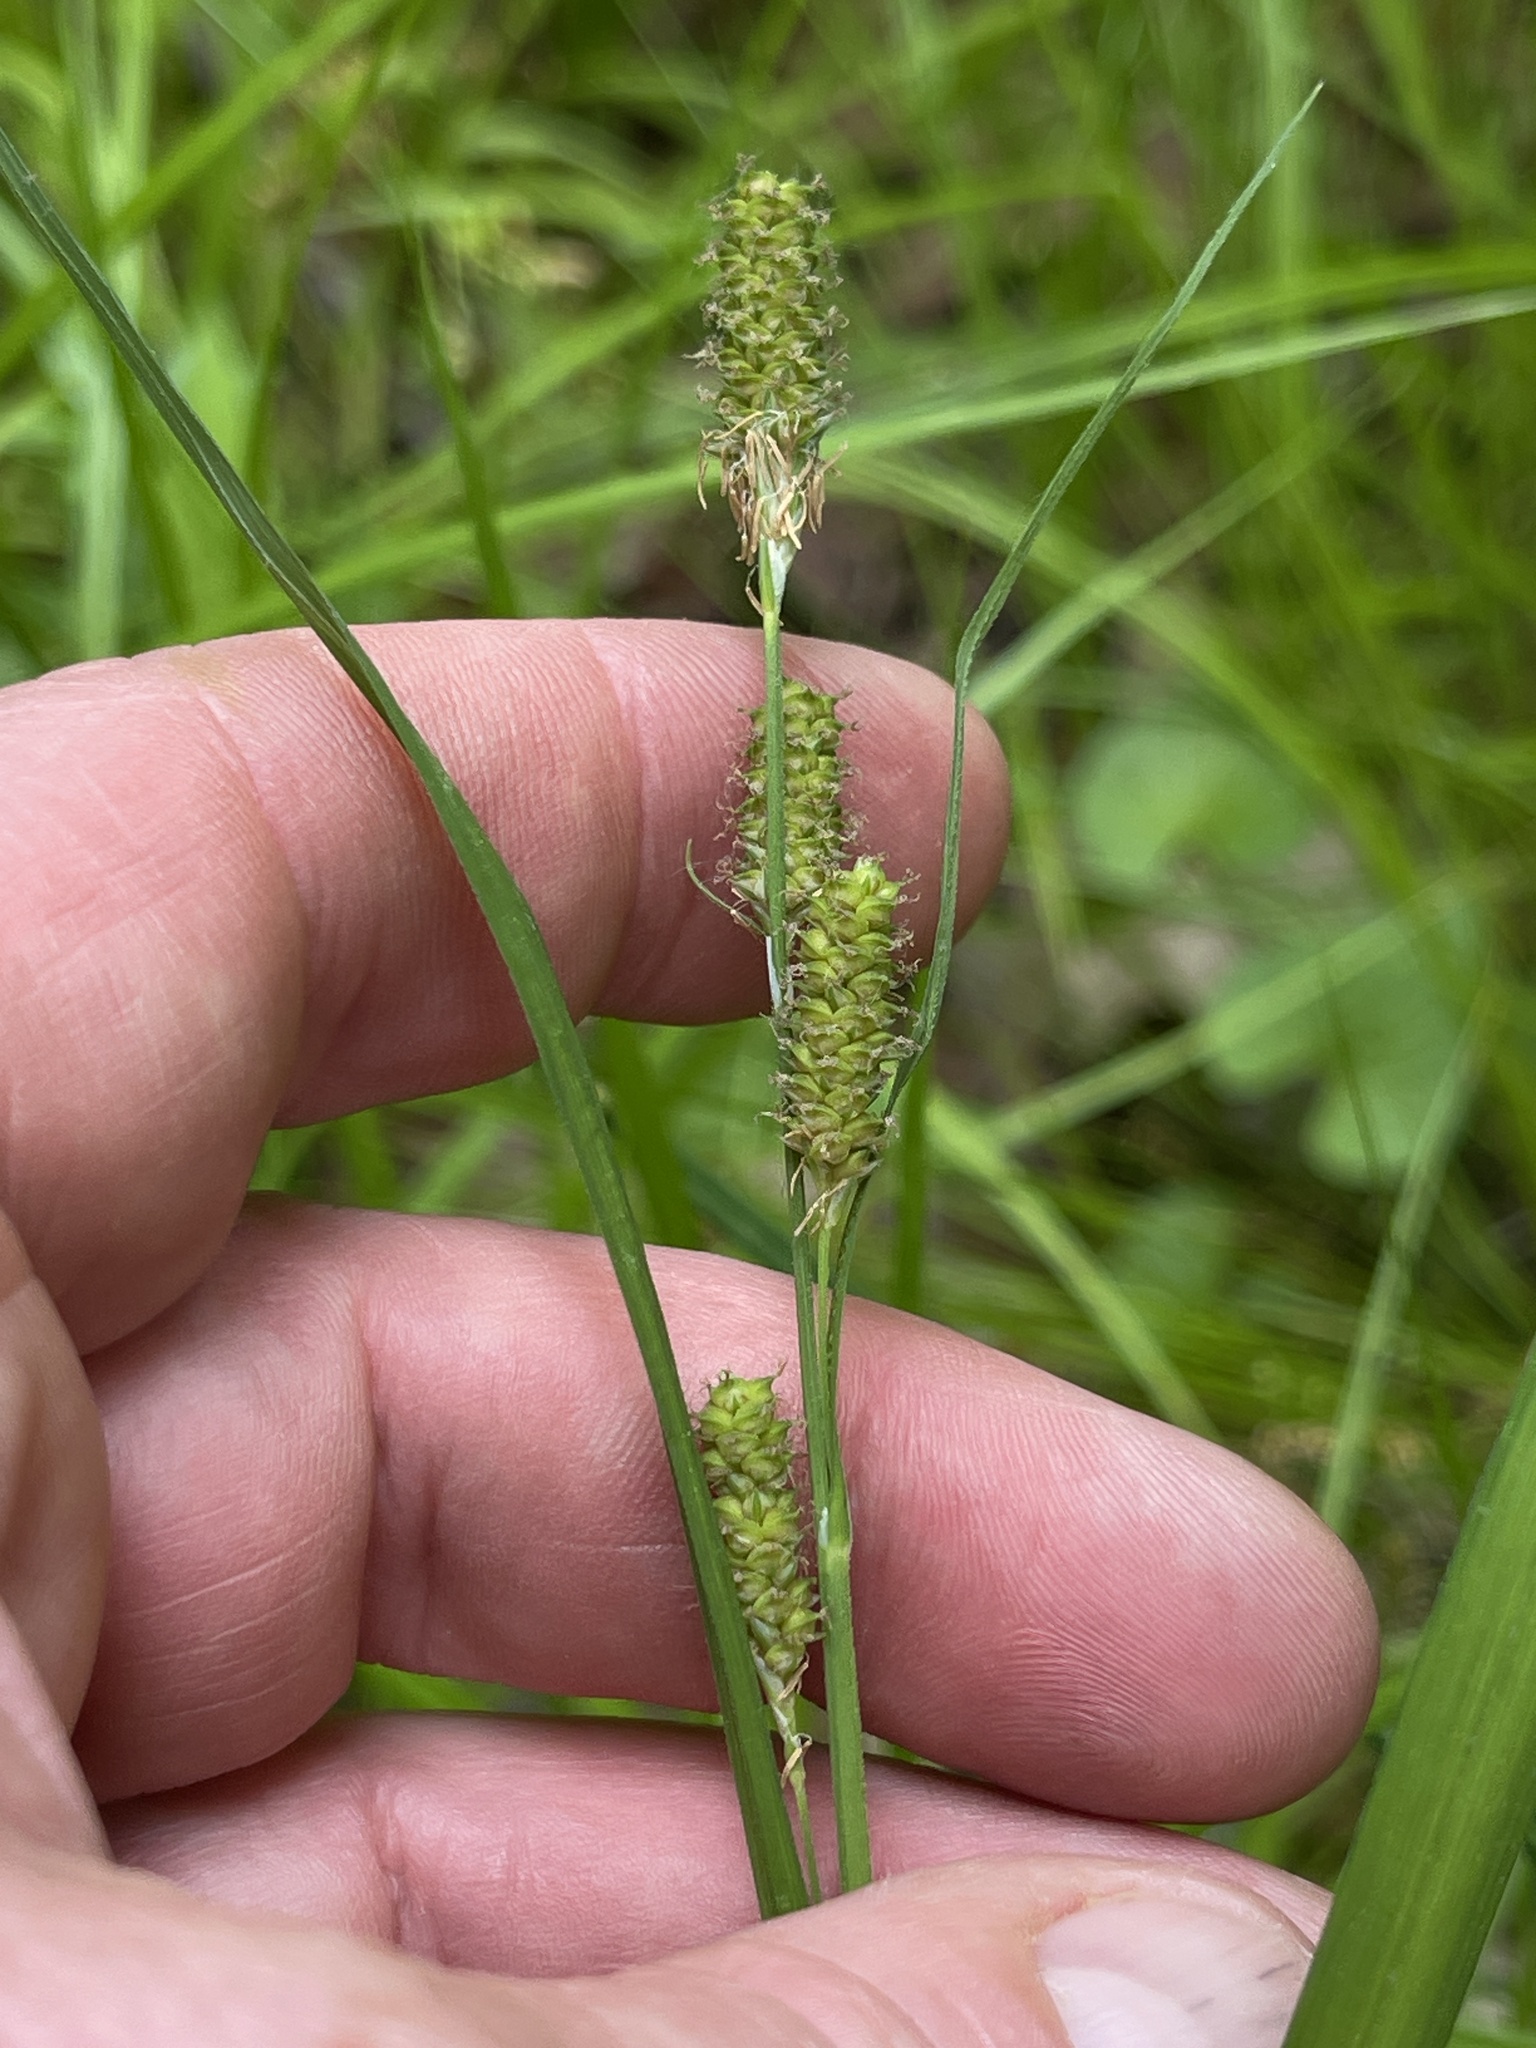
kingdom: Plantae
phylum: Tracheophyta
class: Liliopsida
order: Poales
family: Cyperaceae
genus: Carex
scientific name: Carex shortiana
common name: Short's sedge
